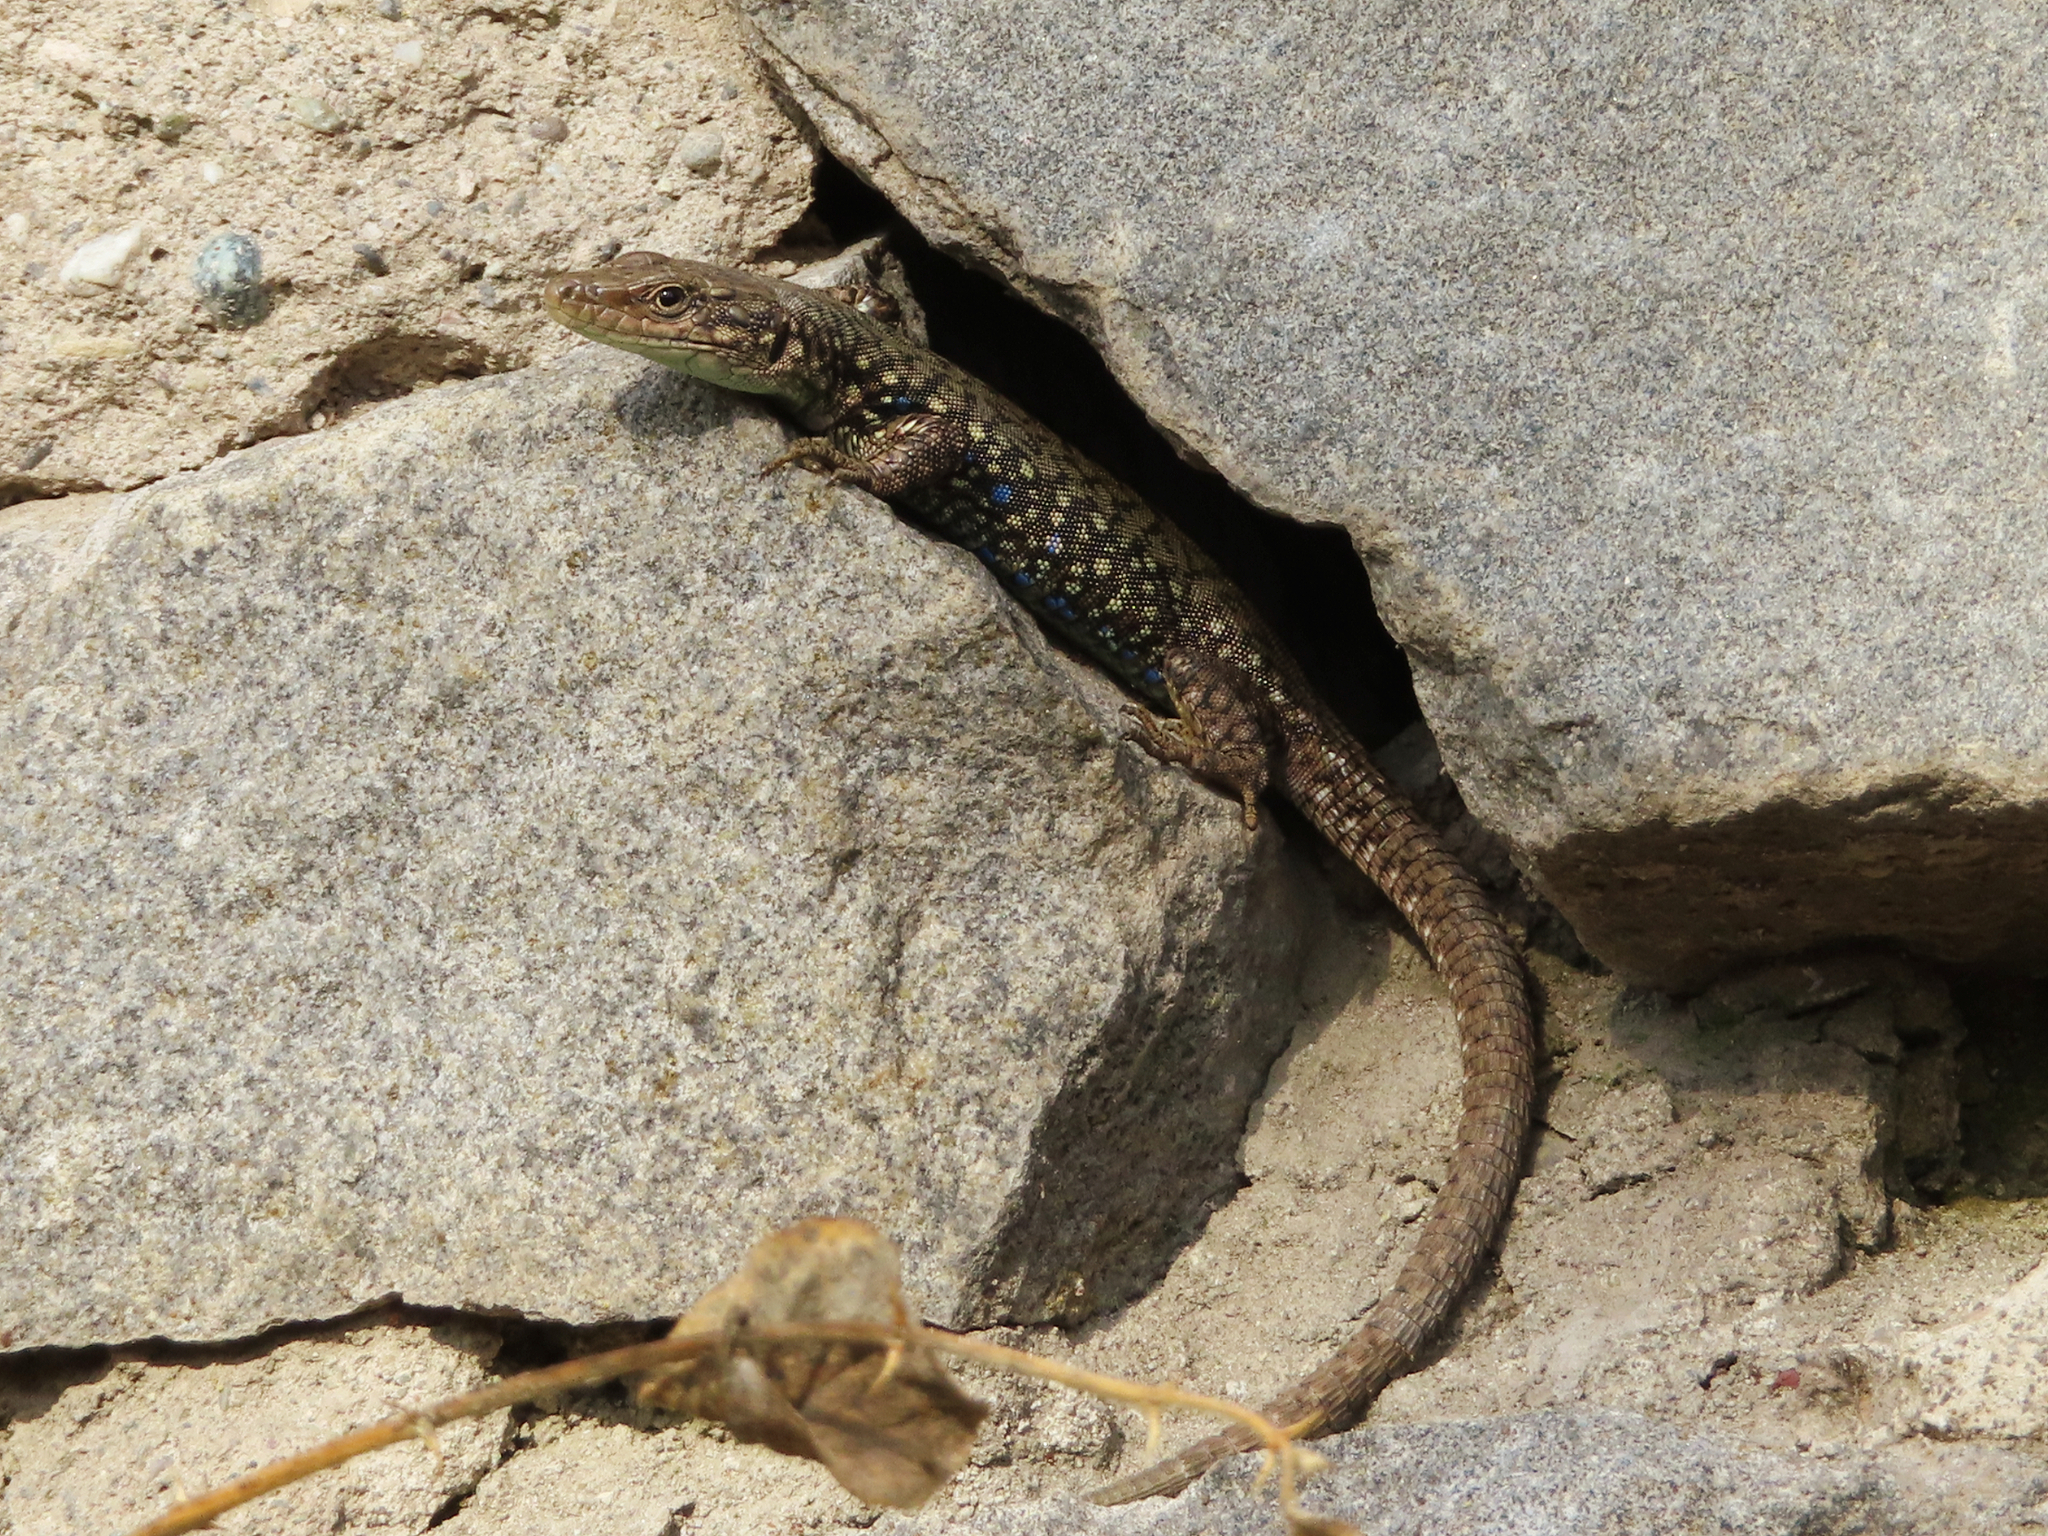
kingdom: Animalia
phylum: Chordata
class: Squamata
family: Lacertidae
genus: Darevskia
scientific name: Darevskia
